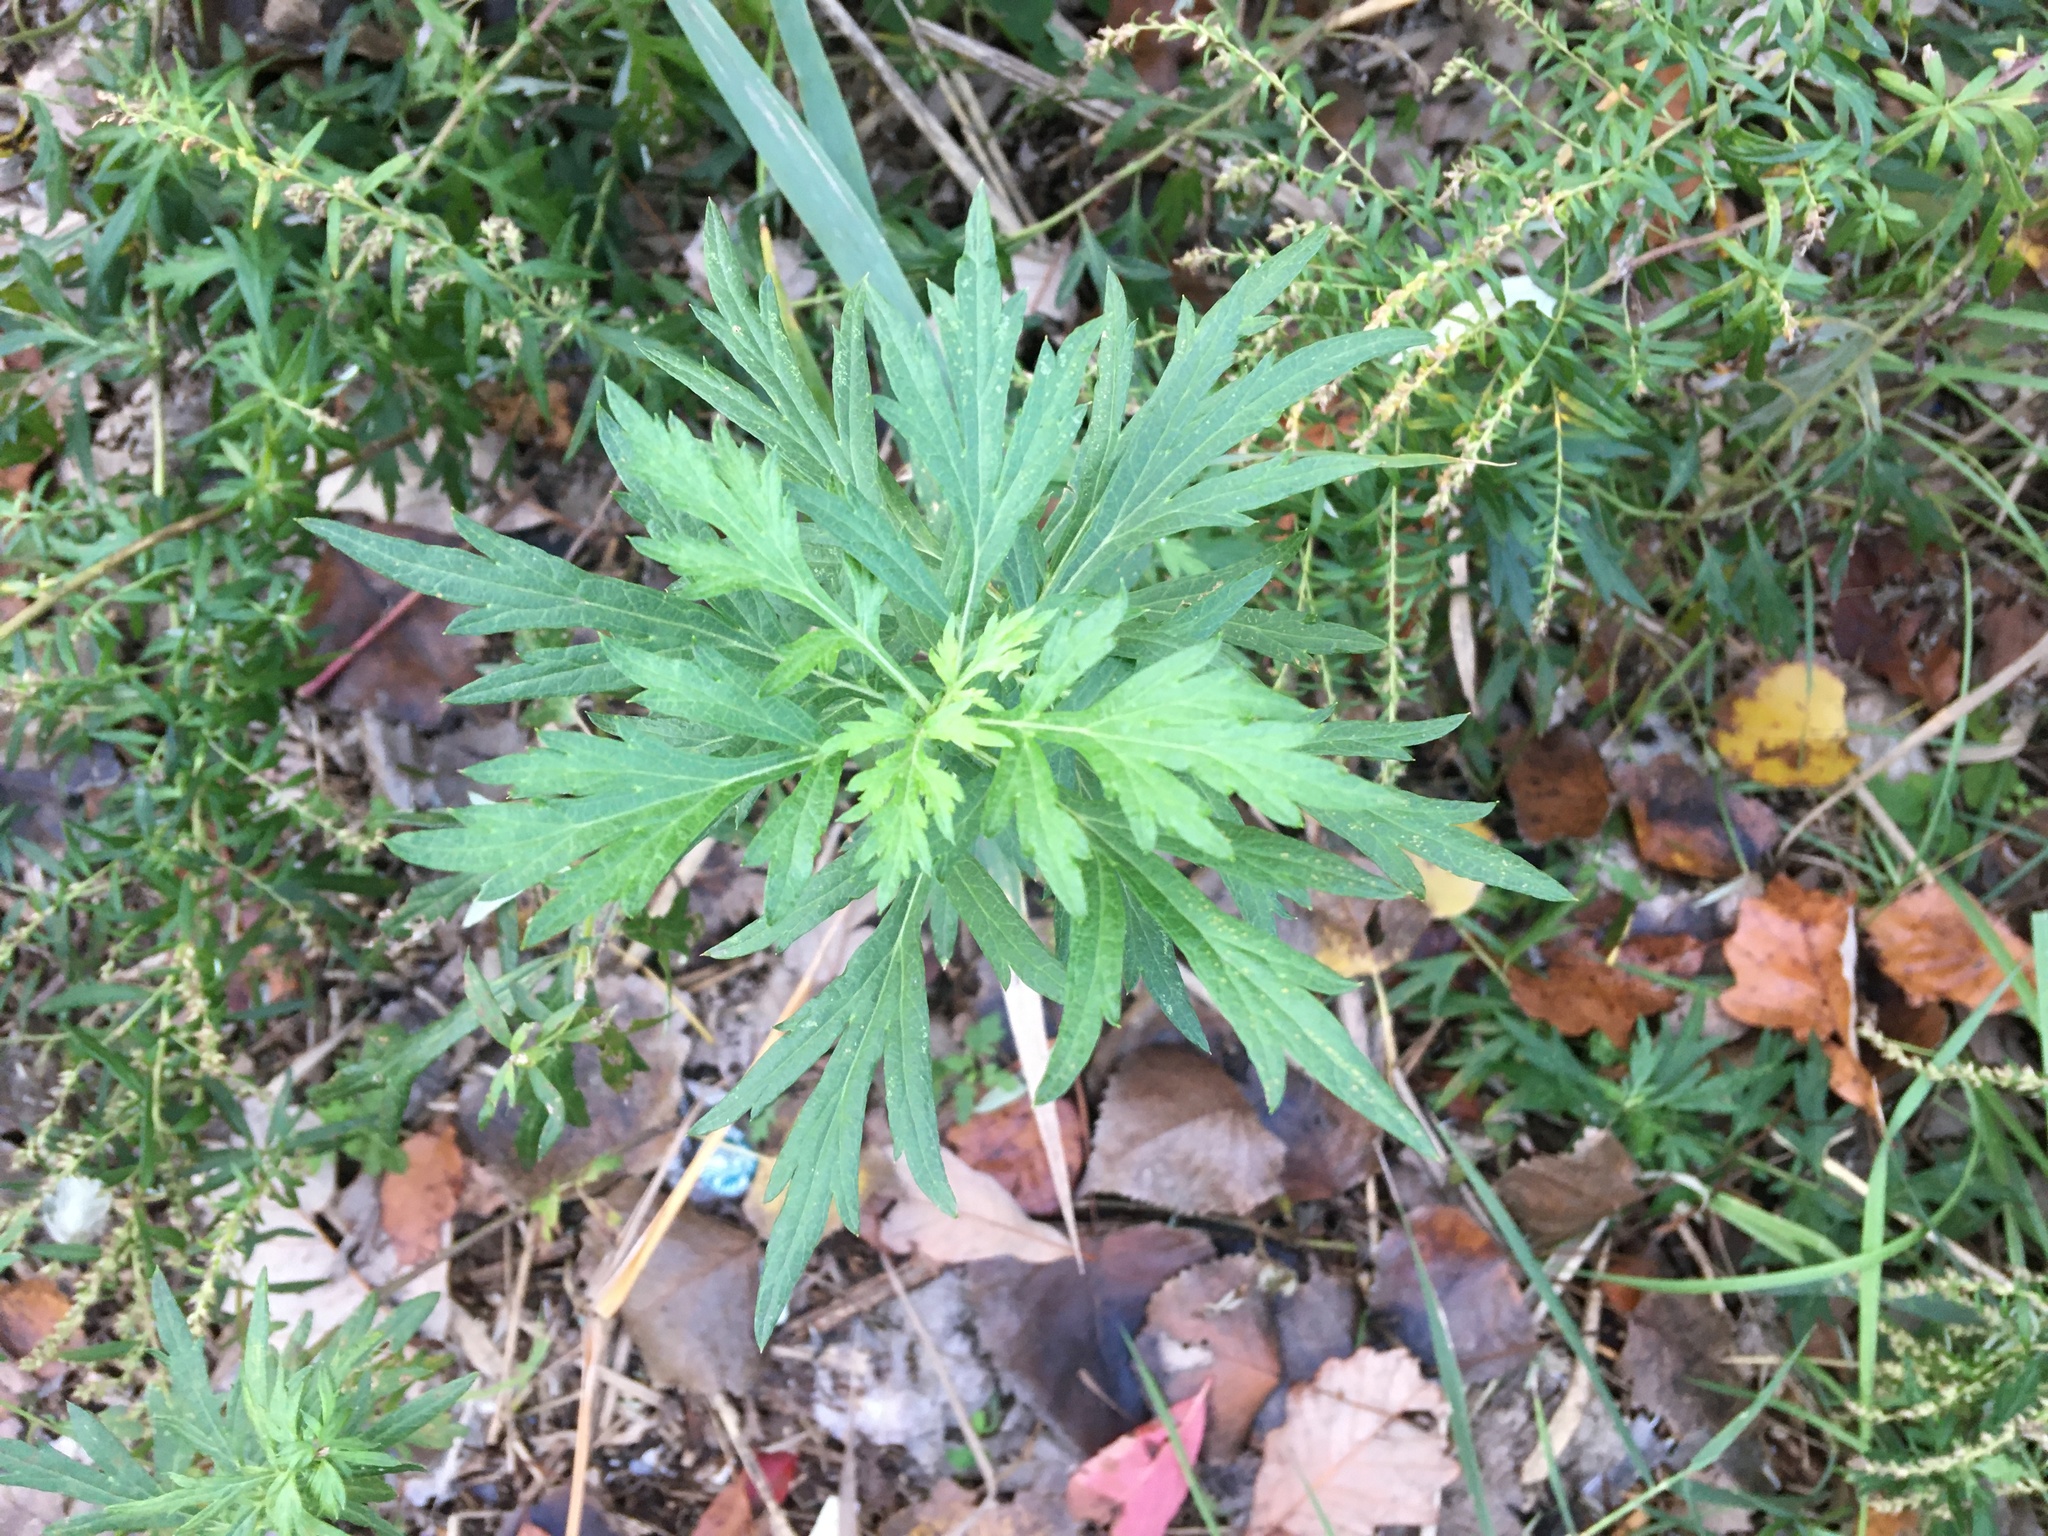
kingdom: Plantae
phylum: Tracheophyta
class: Magnoliopsida
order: Asterales
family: Asteraceae
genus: Artemisia
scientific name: Artemisia vulgaris
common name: Mugwort
